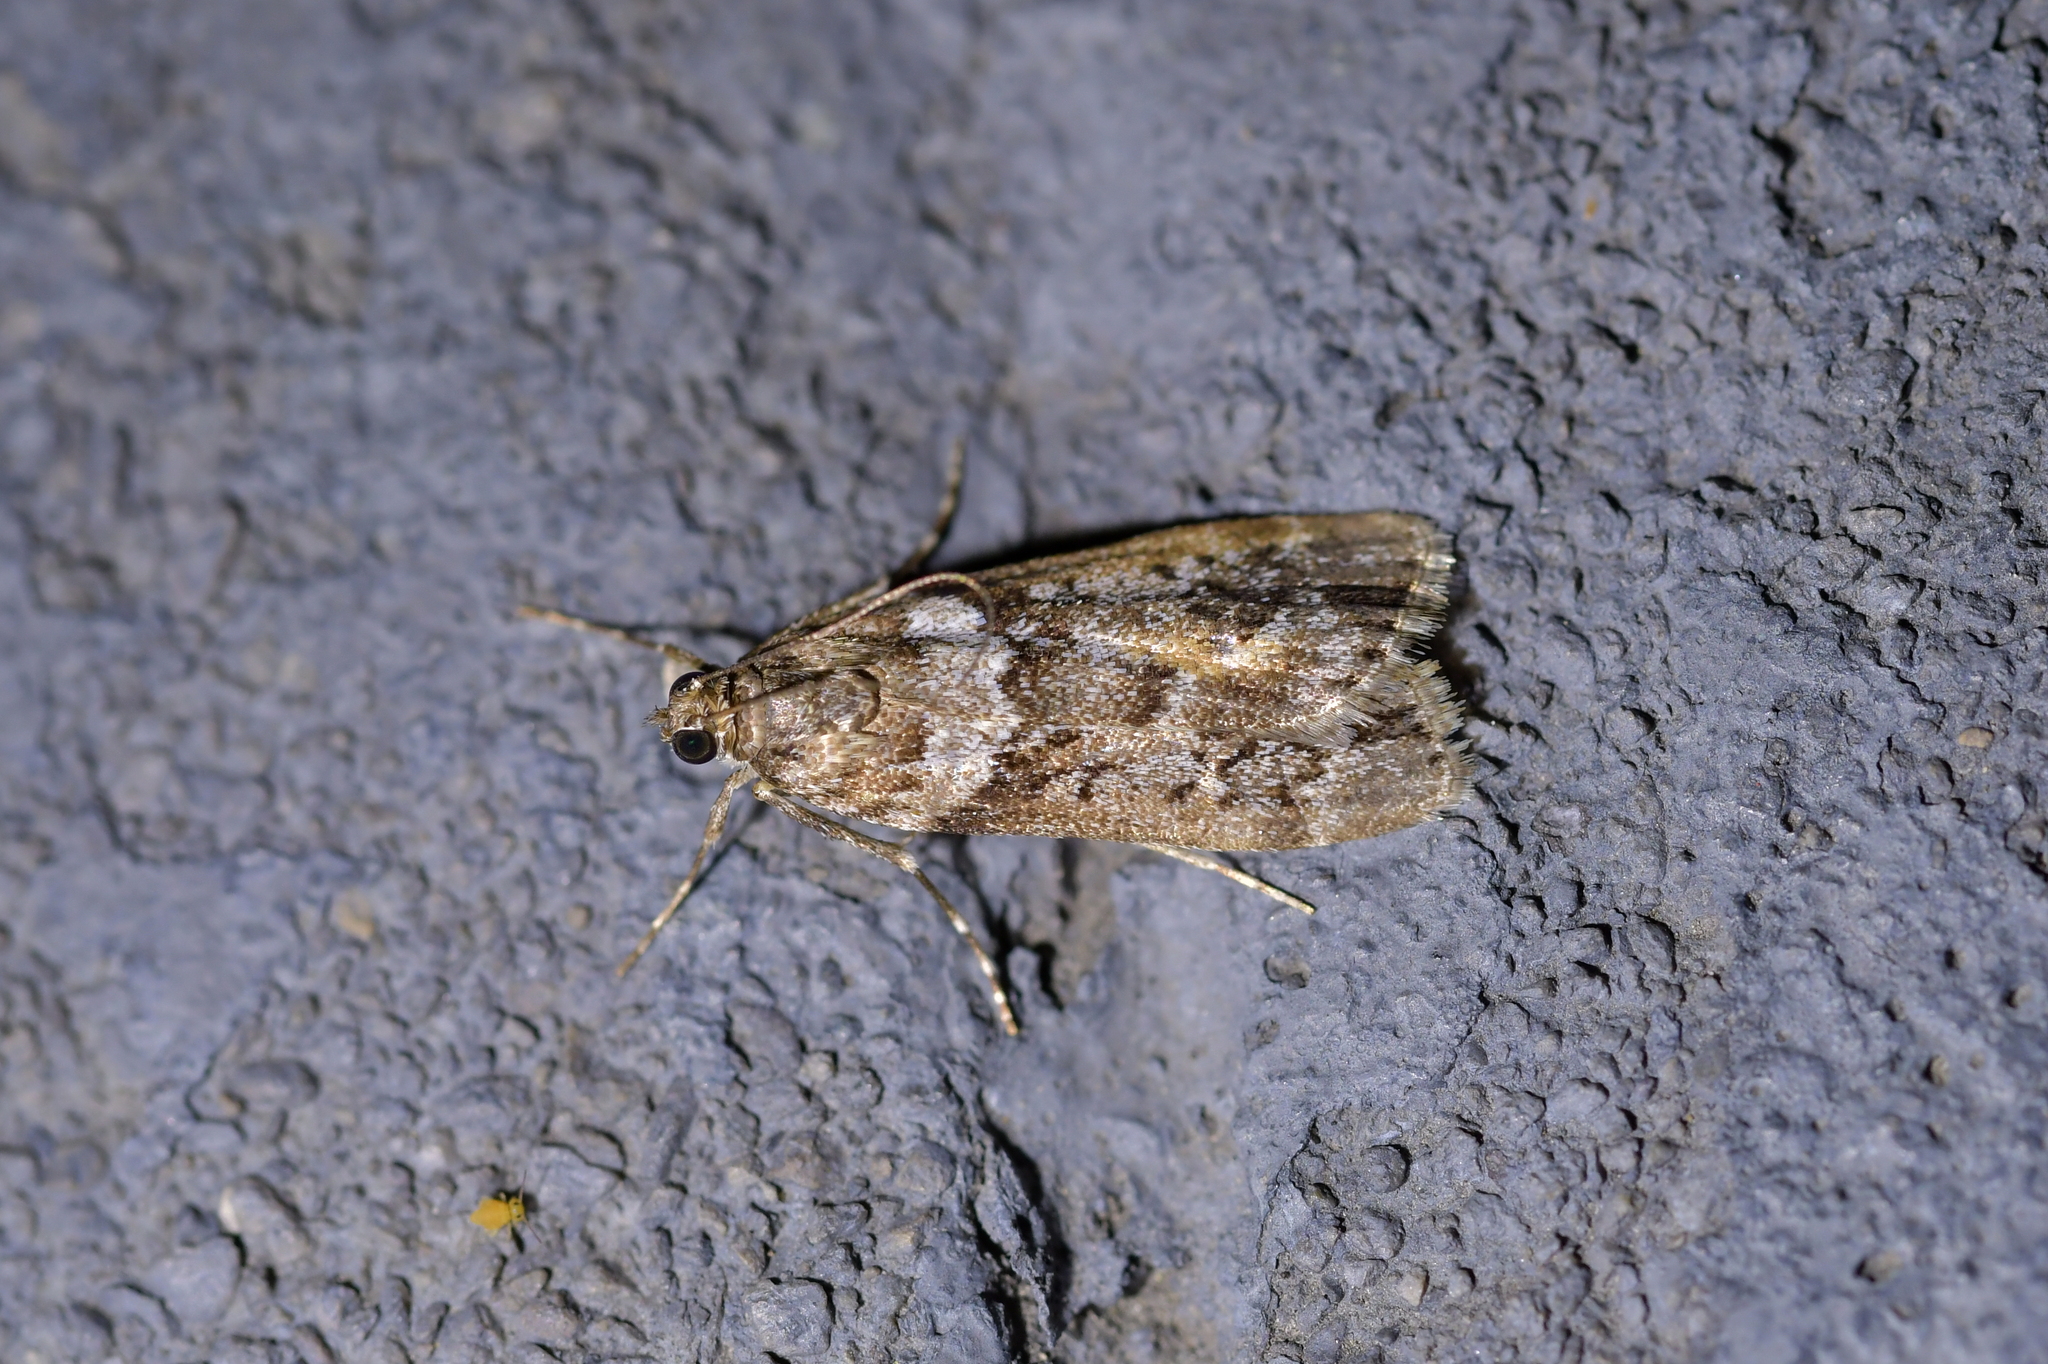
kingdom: Animalia
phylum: Arthropoda
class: Insecta
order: Lepidoptera
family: Crambidae
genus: Eudonia
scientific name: Eudonia submarginalis
